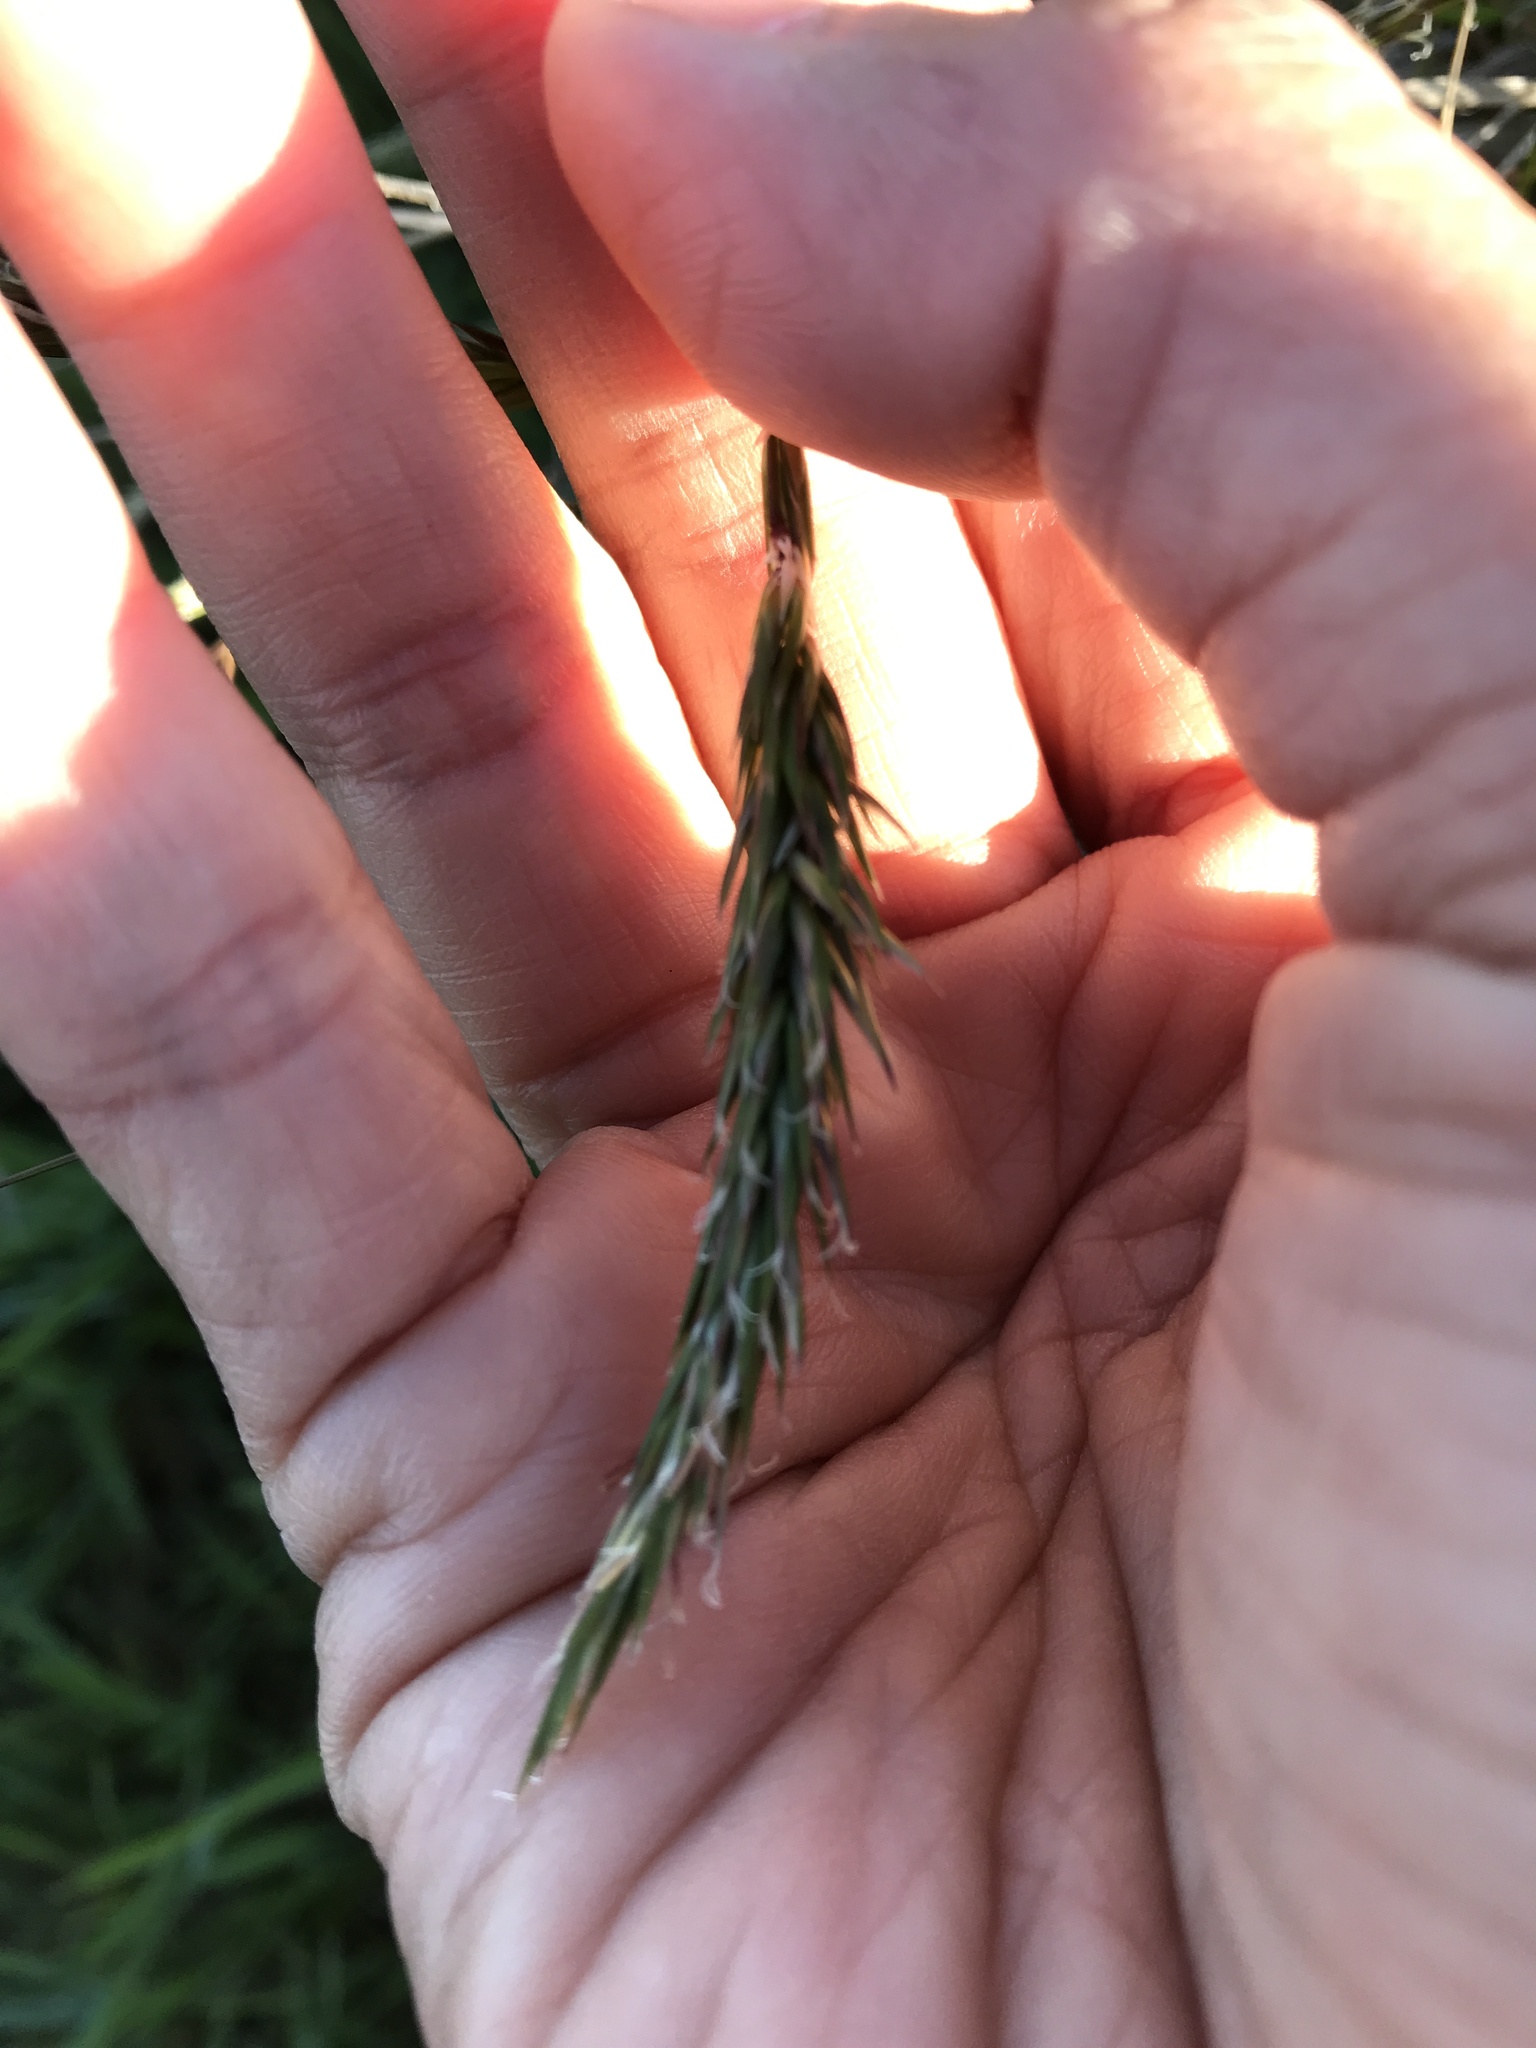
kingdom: Plantae
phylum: Tracheophyta
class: Liliopsida
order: Poales
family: Poaceae
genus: Anthoxanthum
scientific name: Anthoxanthum odoratum
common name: Sweet vernalgrass
